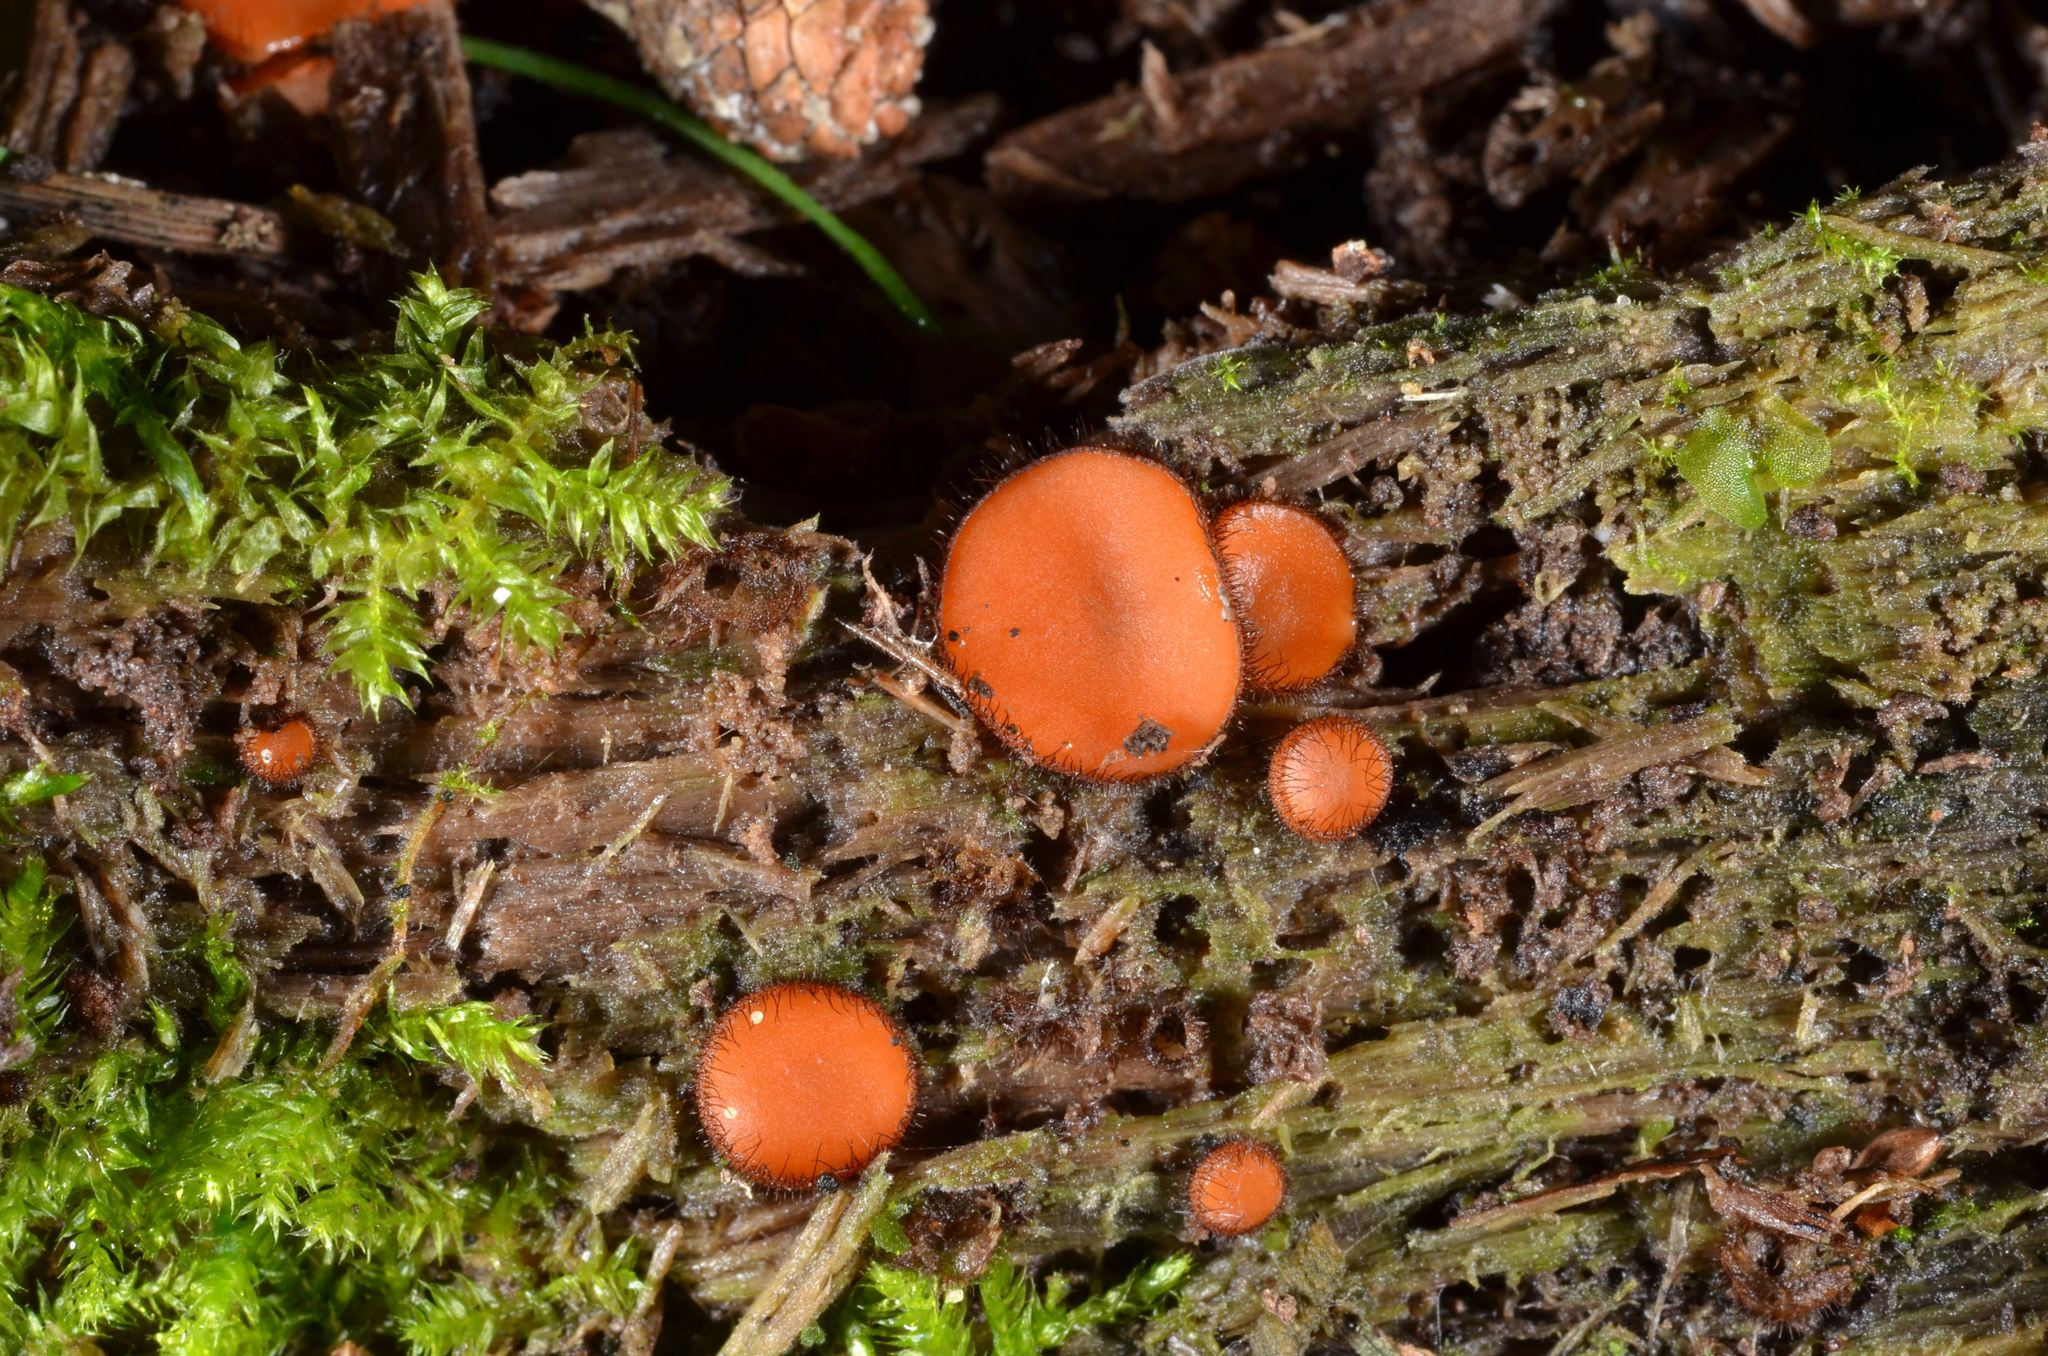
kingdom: Fungi
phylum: Ascomycota
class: Pezizomycetes
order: Pezizales
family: Pyronemataceae
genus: Scutellinia
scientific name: Scutellinia crinita
